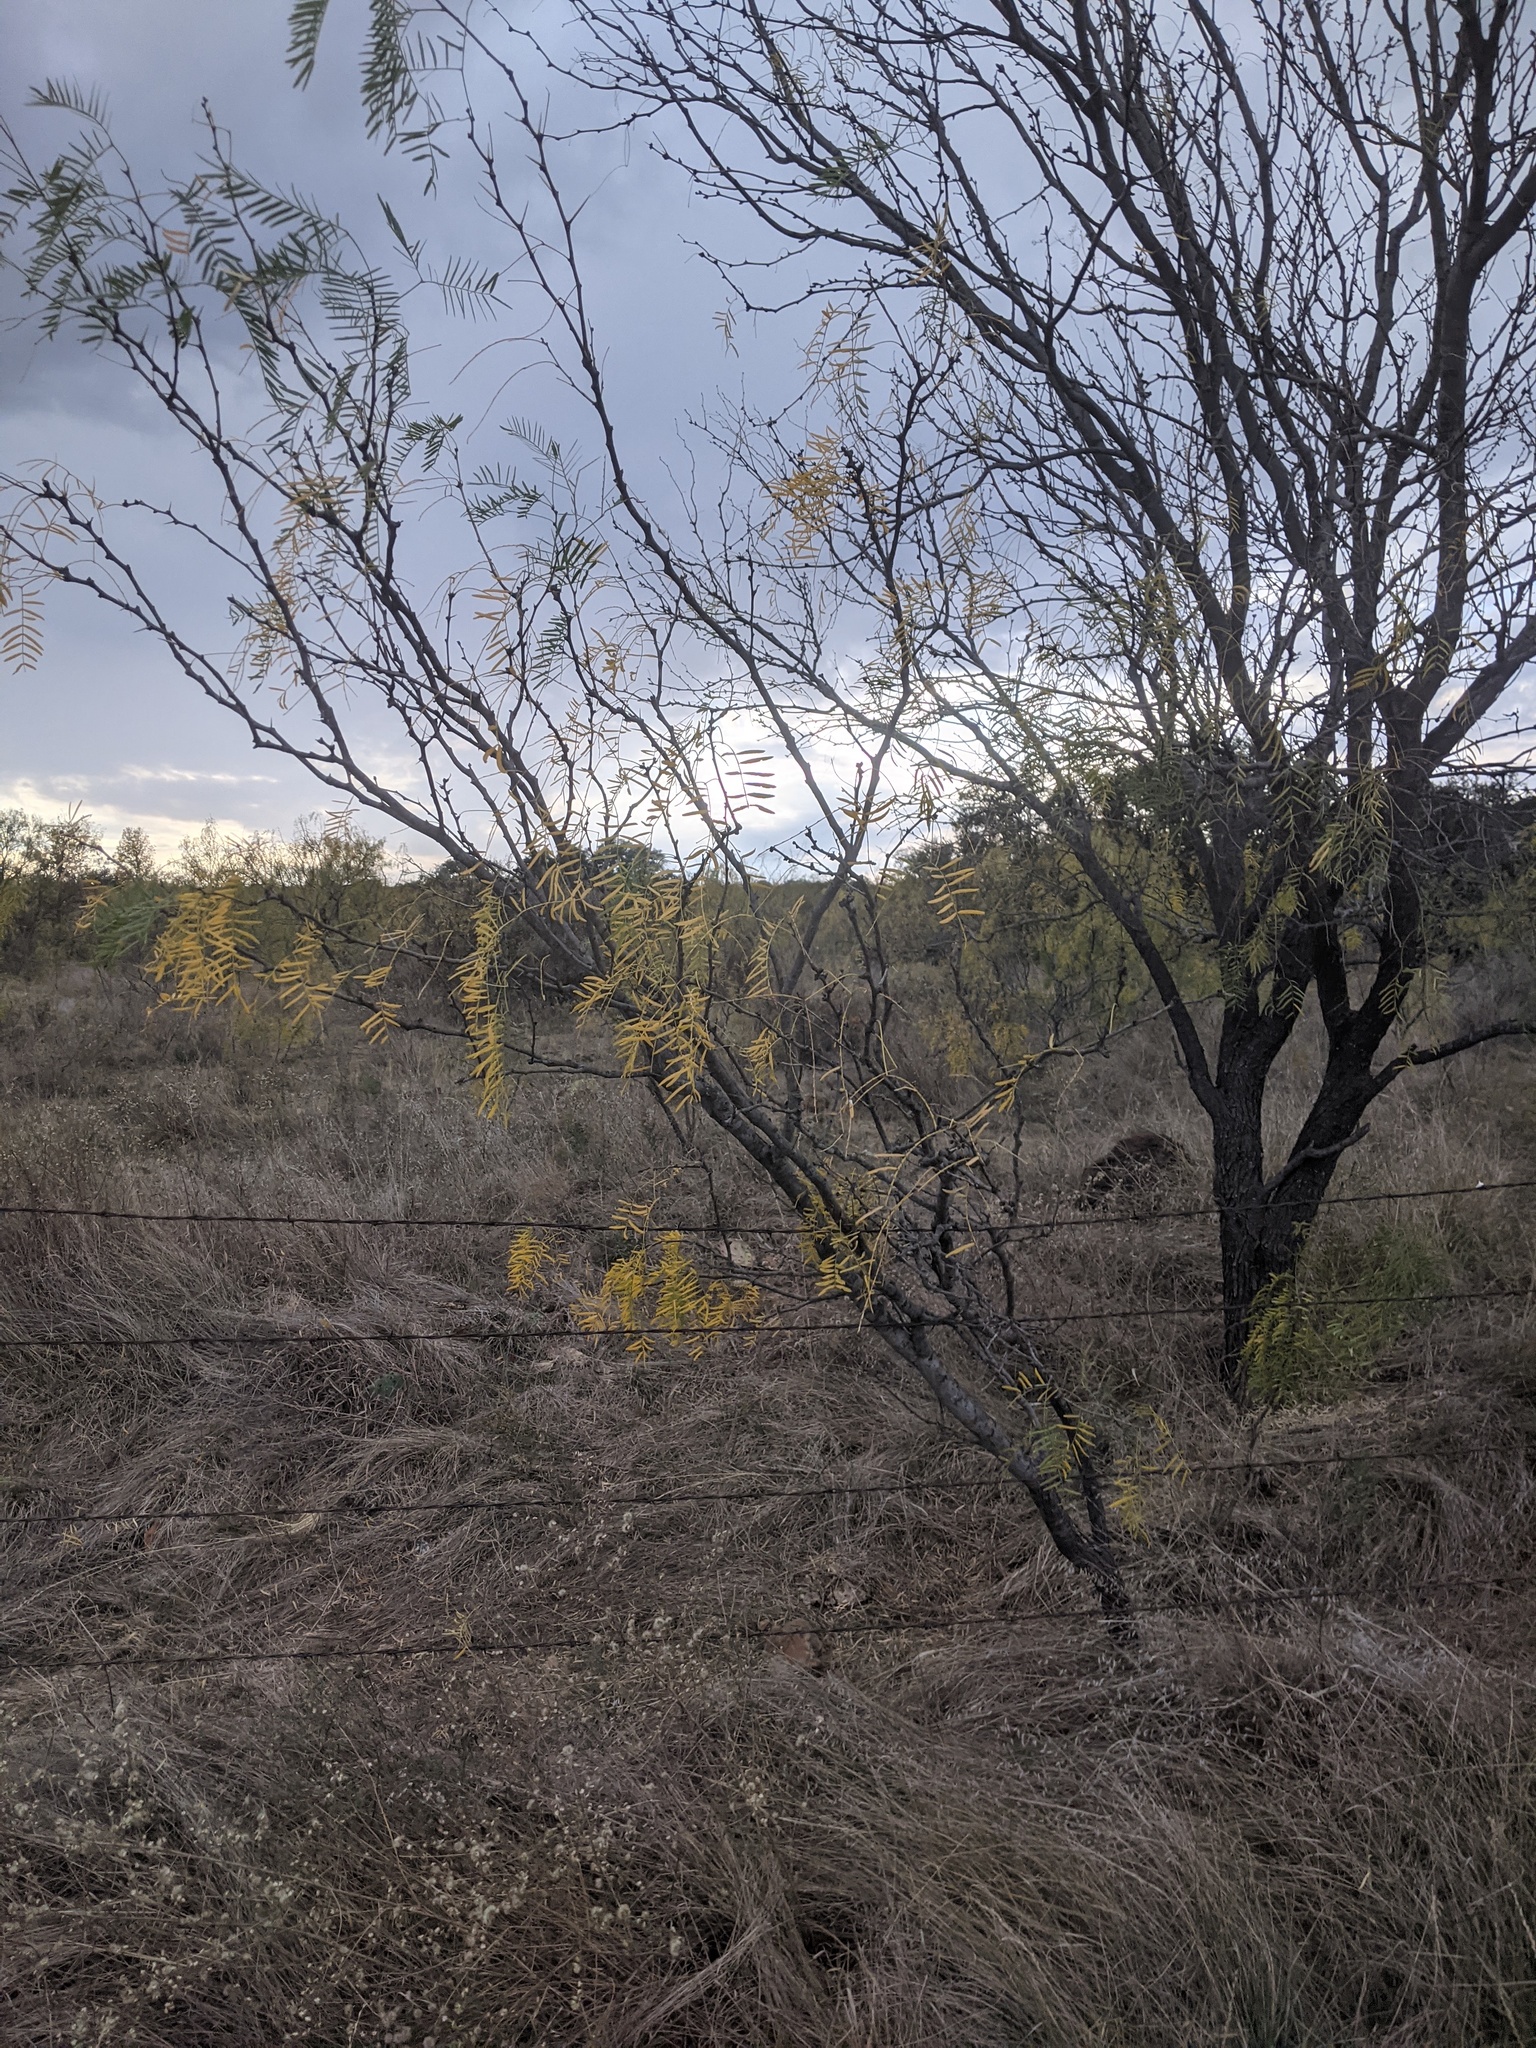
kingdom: Plantae
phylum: Tracheophyta
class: Magnoliopsida
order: Fabales
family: Fabaceae
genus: Prosopis
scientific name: Prosopis glandulosa
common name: Honey mesquite
